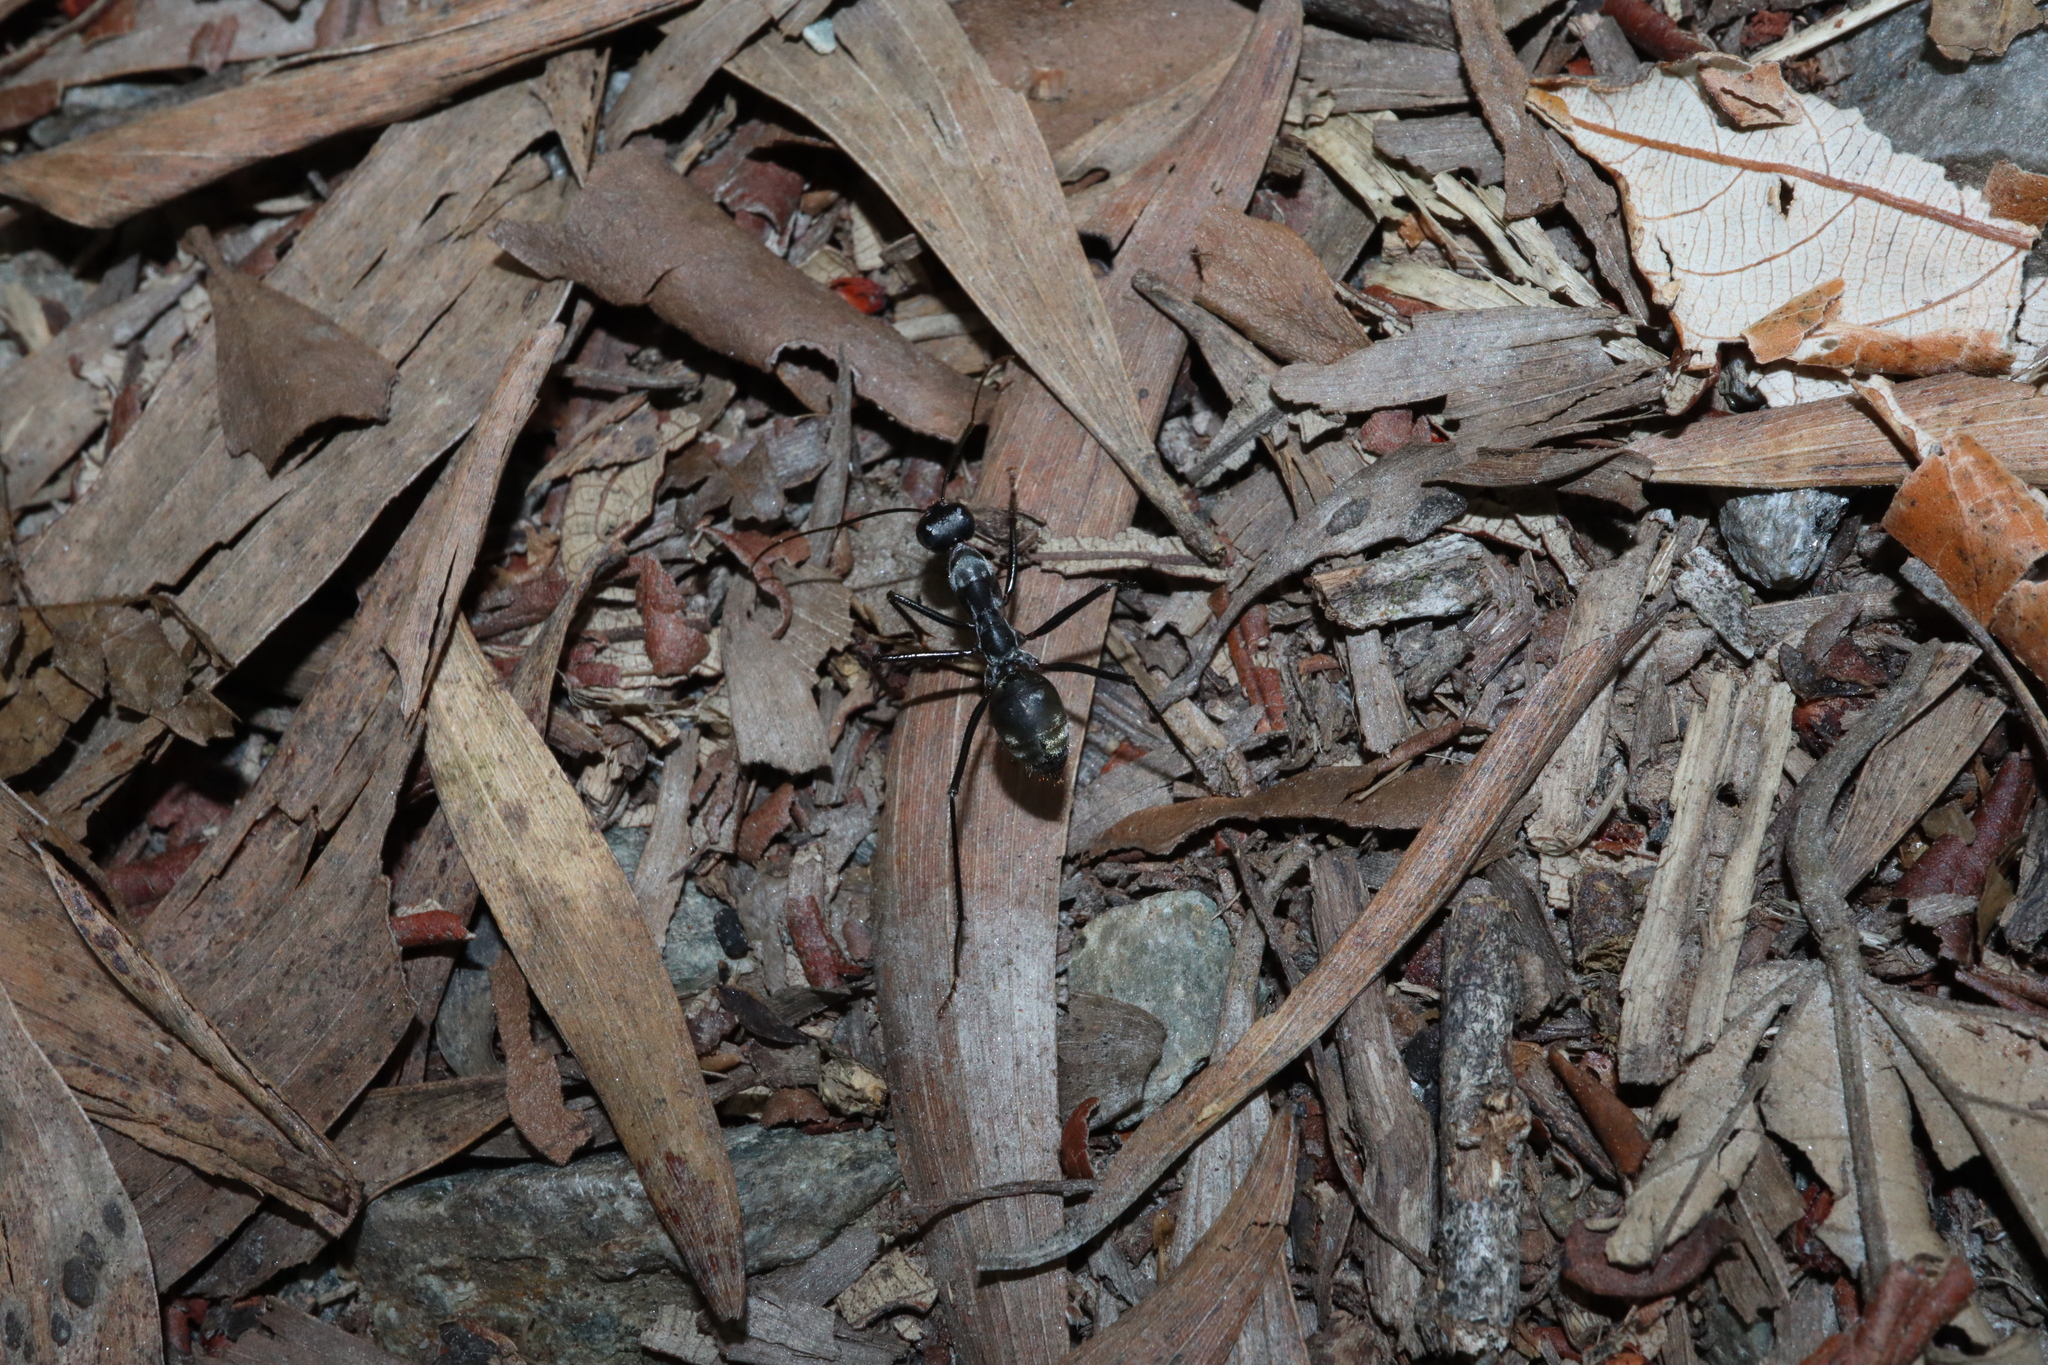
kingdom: Animalia
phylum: Arthropoda
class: Insecta
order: Hymenoptera
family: Formicidae
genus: Notostigma
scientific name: Notostigma carazzii
